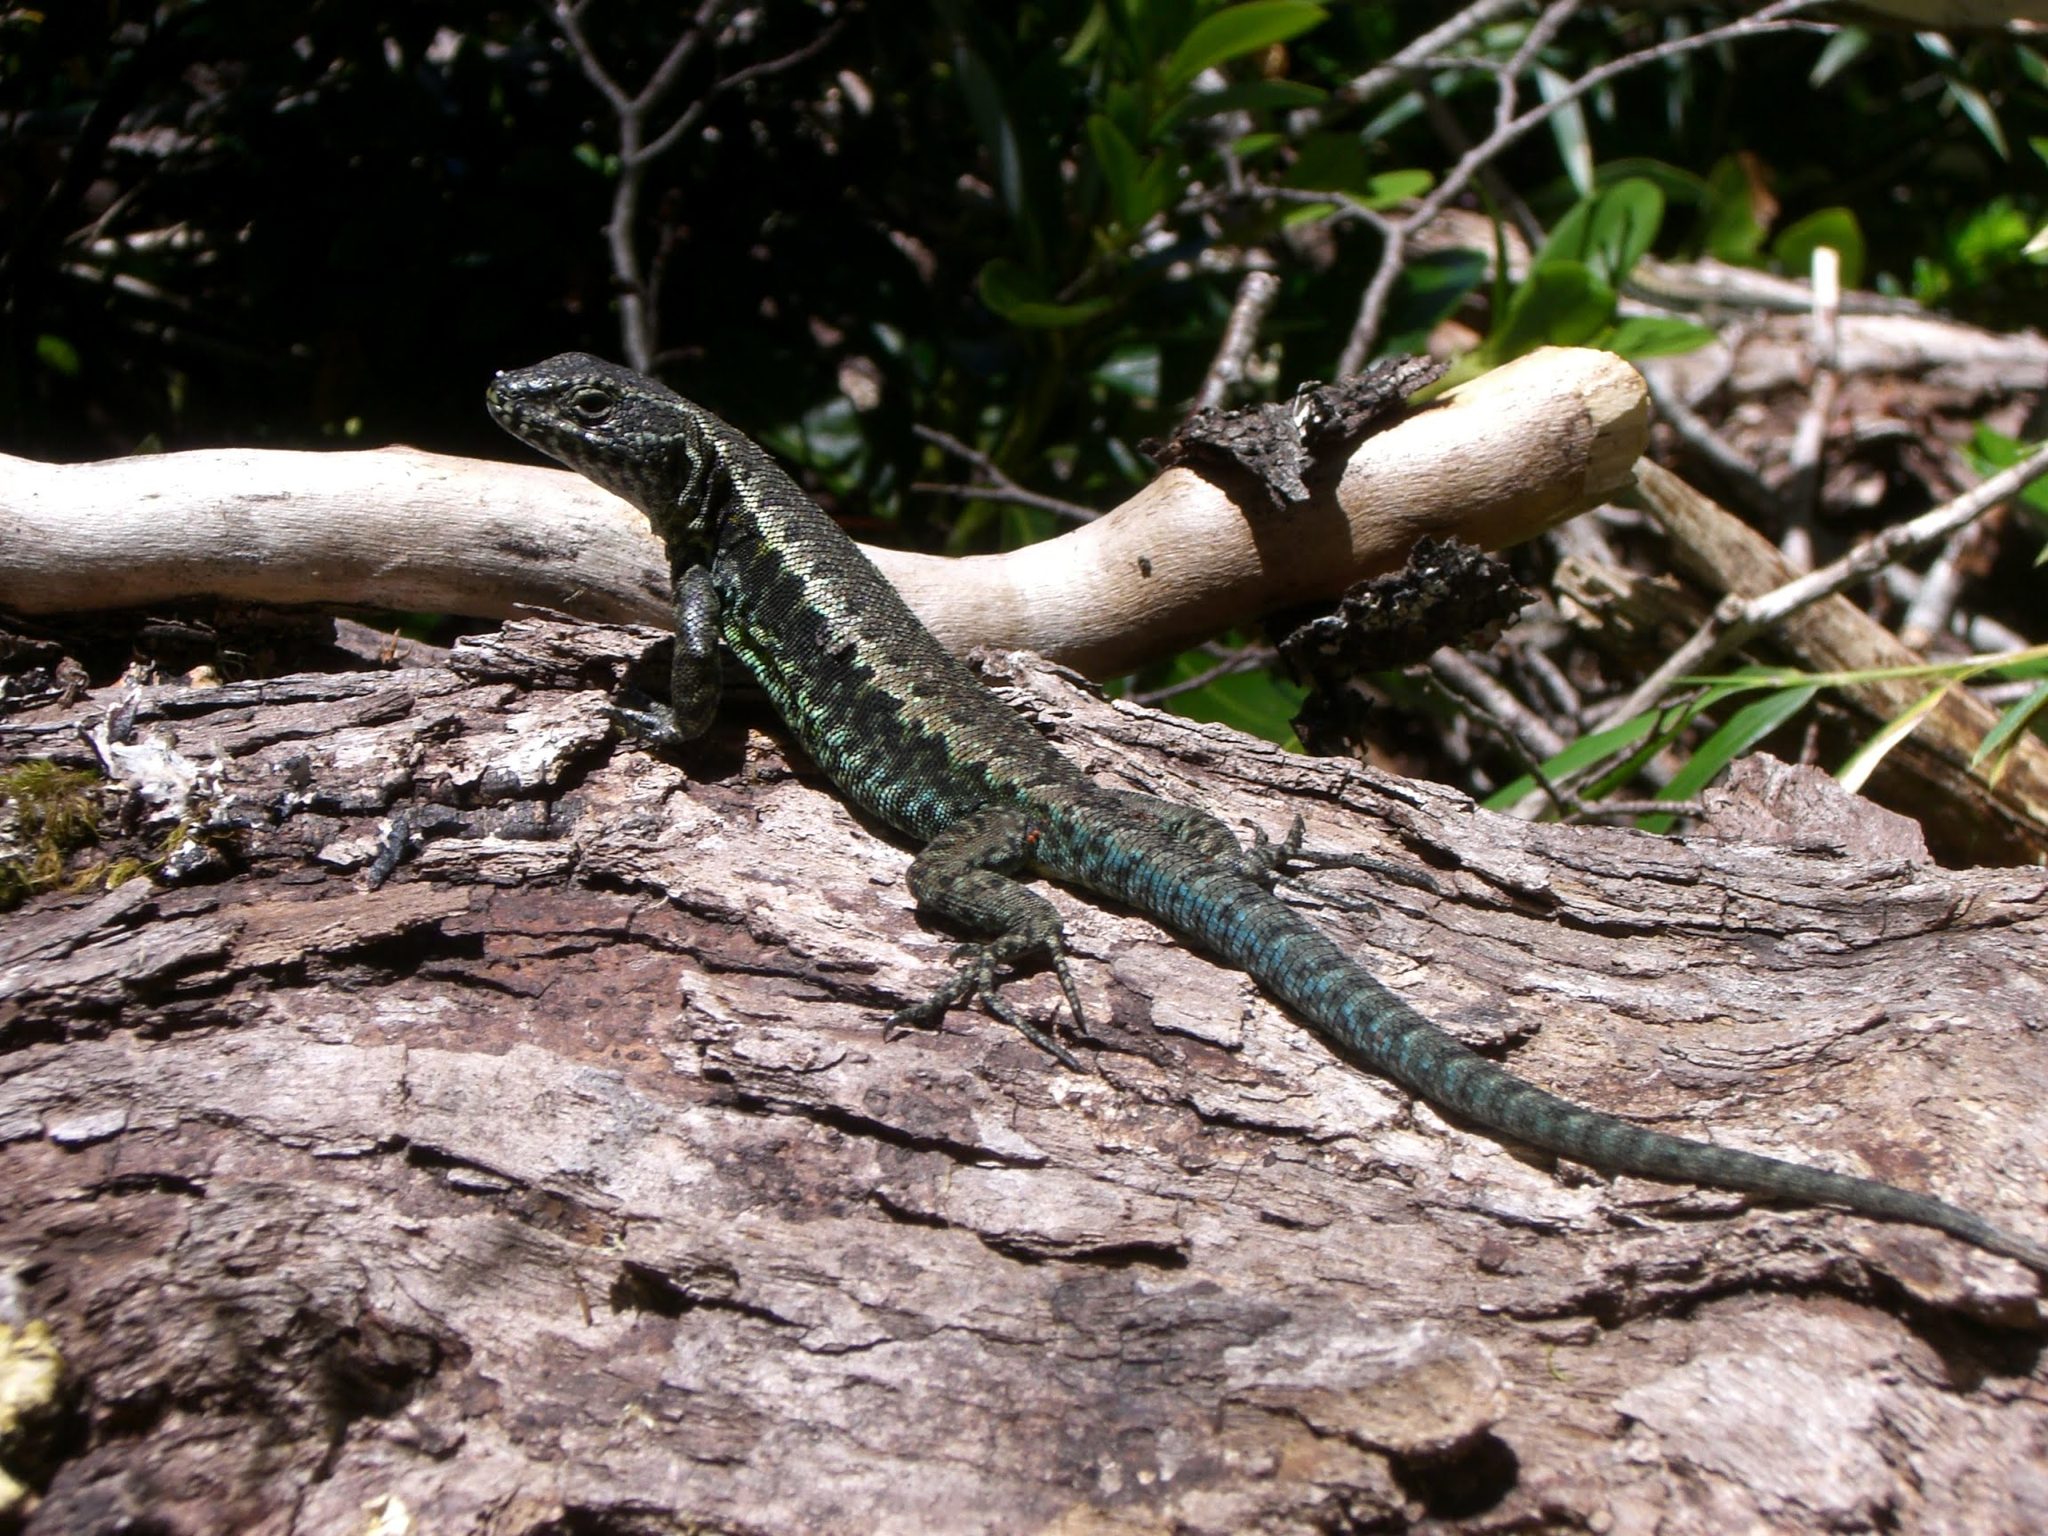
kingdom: Animalia
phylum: Chordata
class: Squamata
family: Liolaemidae
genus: Liolaemus
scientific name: Liolaemus pictus
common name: Painted tree iguana
